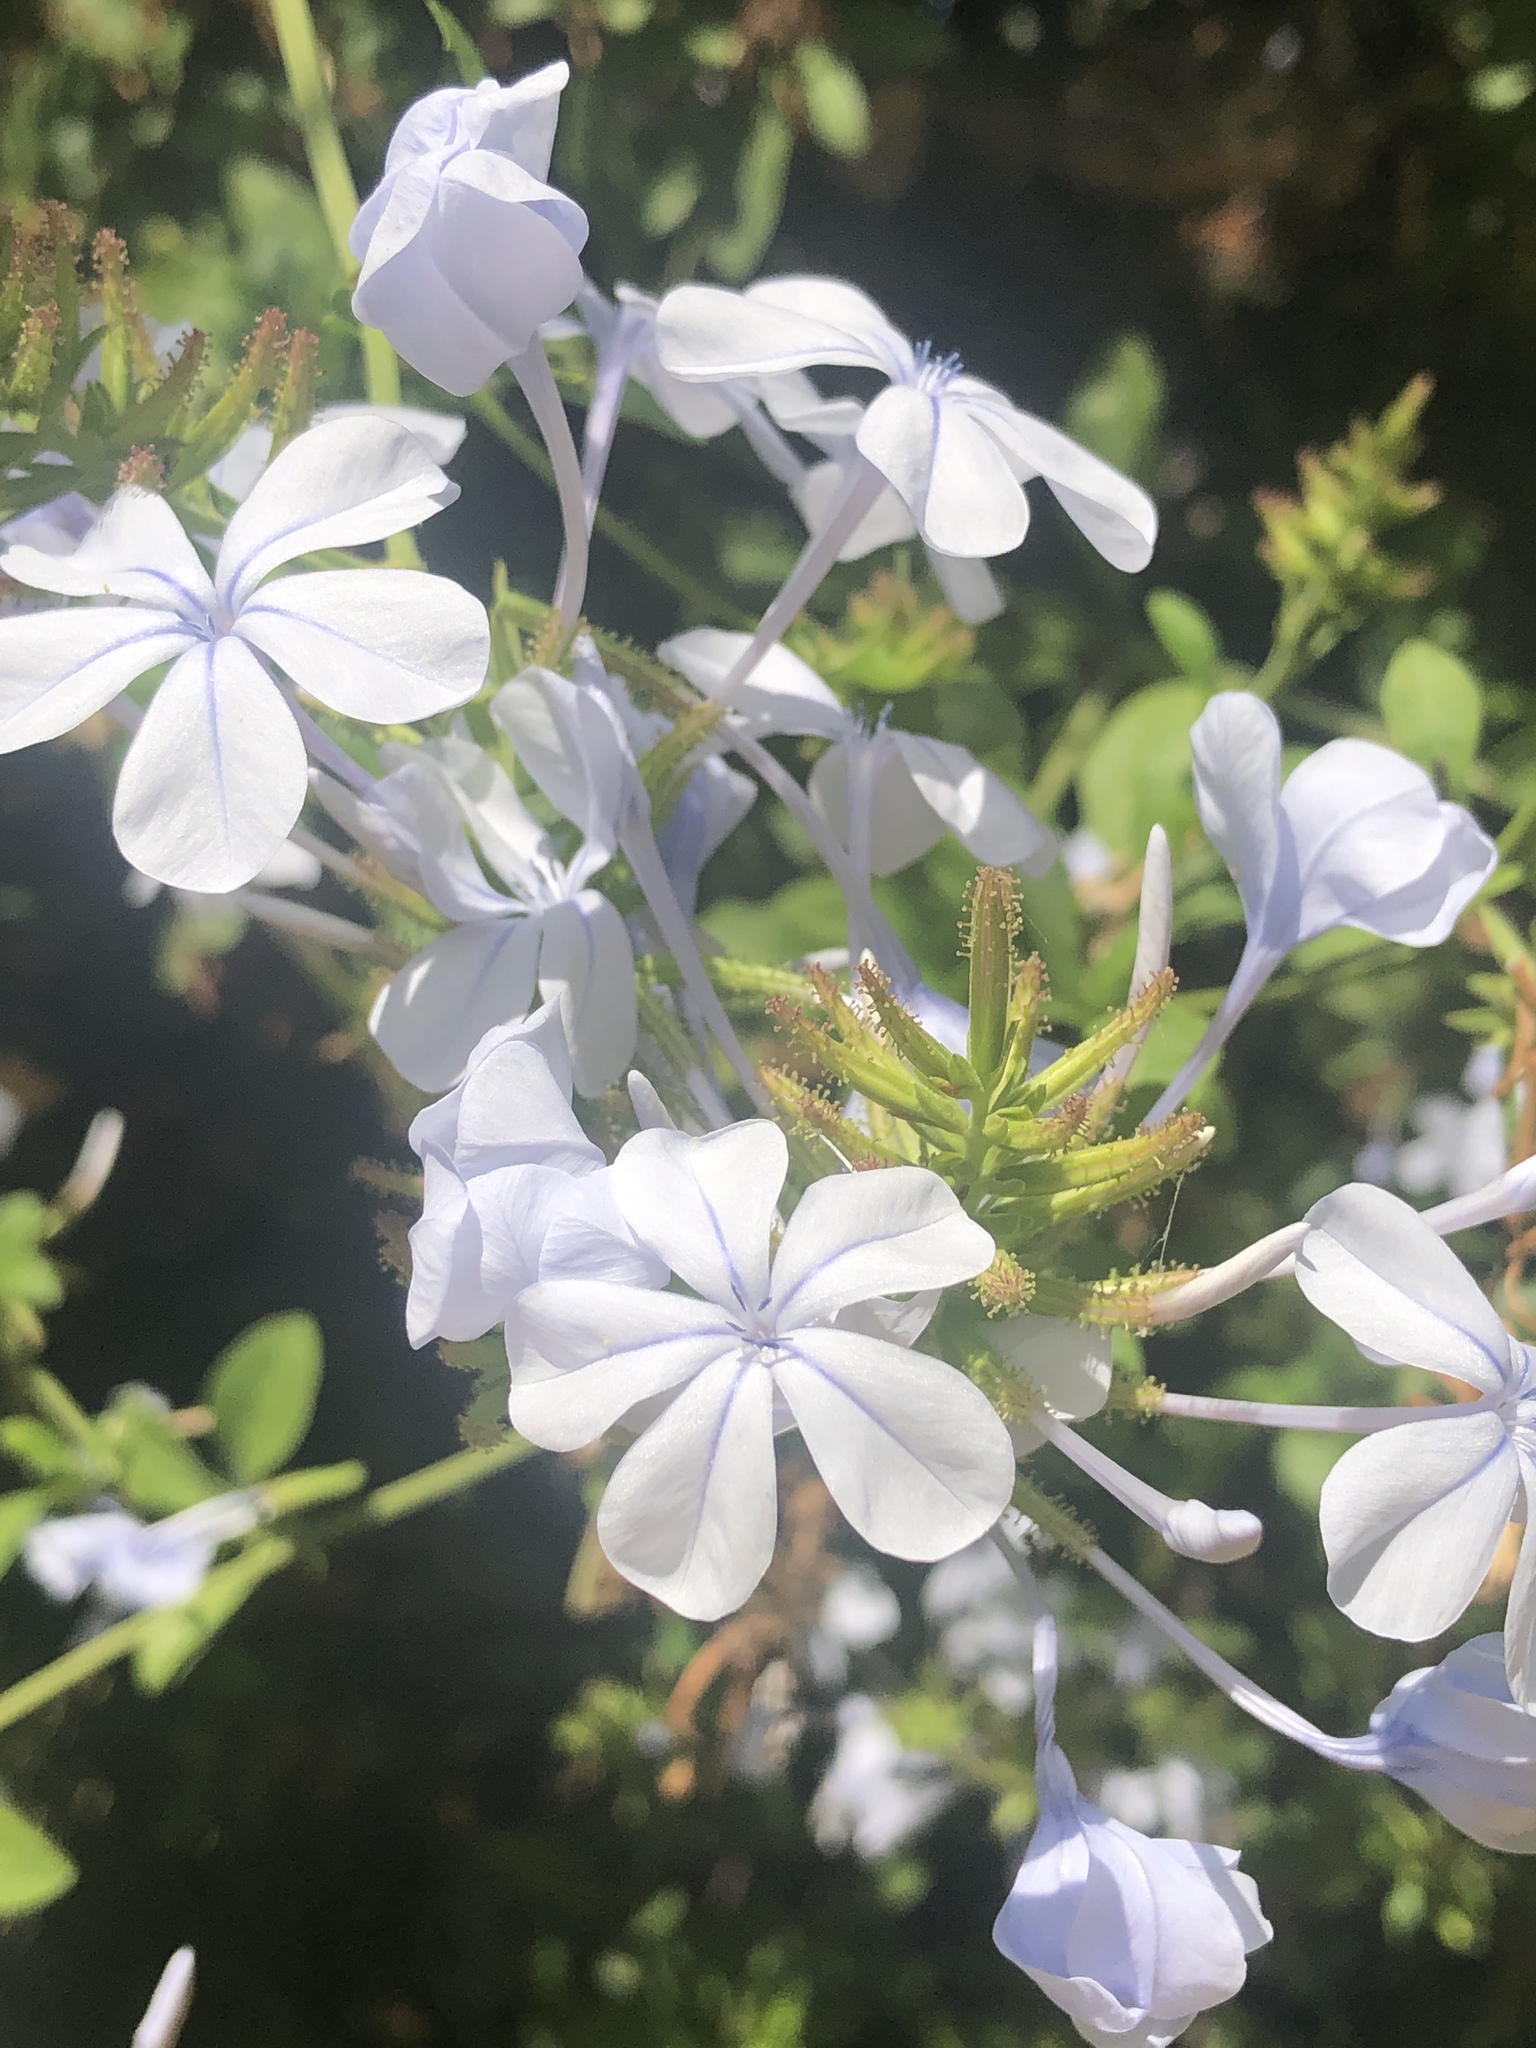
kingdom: Plantae
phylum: Tracheophyta
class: Magnoliopsida
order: Caryophyllales
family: Plumbaginaceae
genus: Plumbago
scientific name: Plumbago auriculata
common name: Cape leadwort
